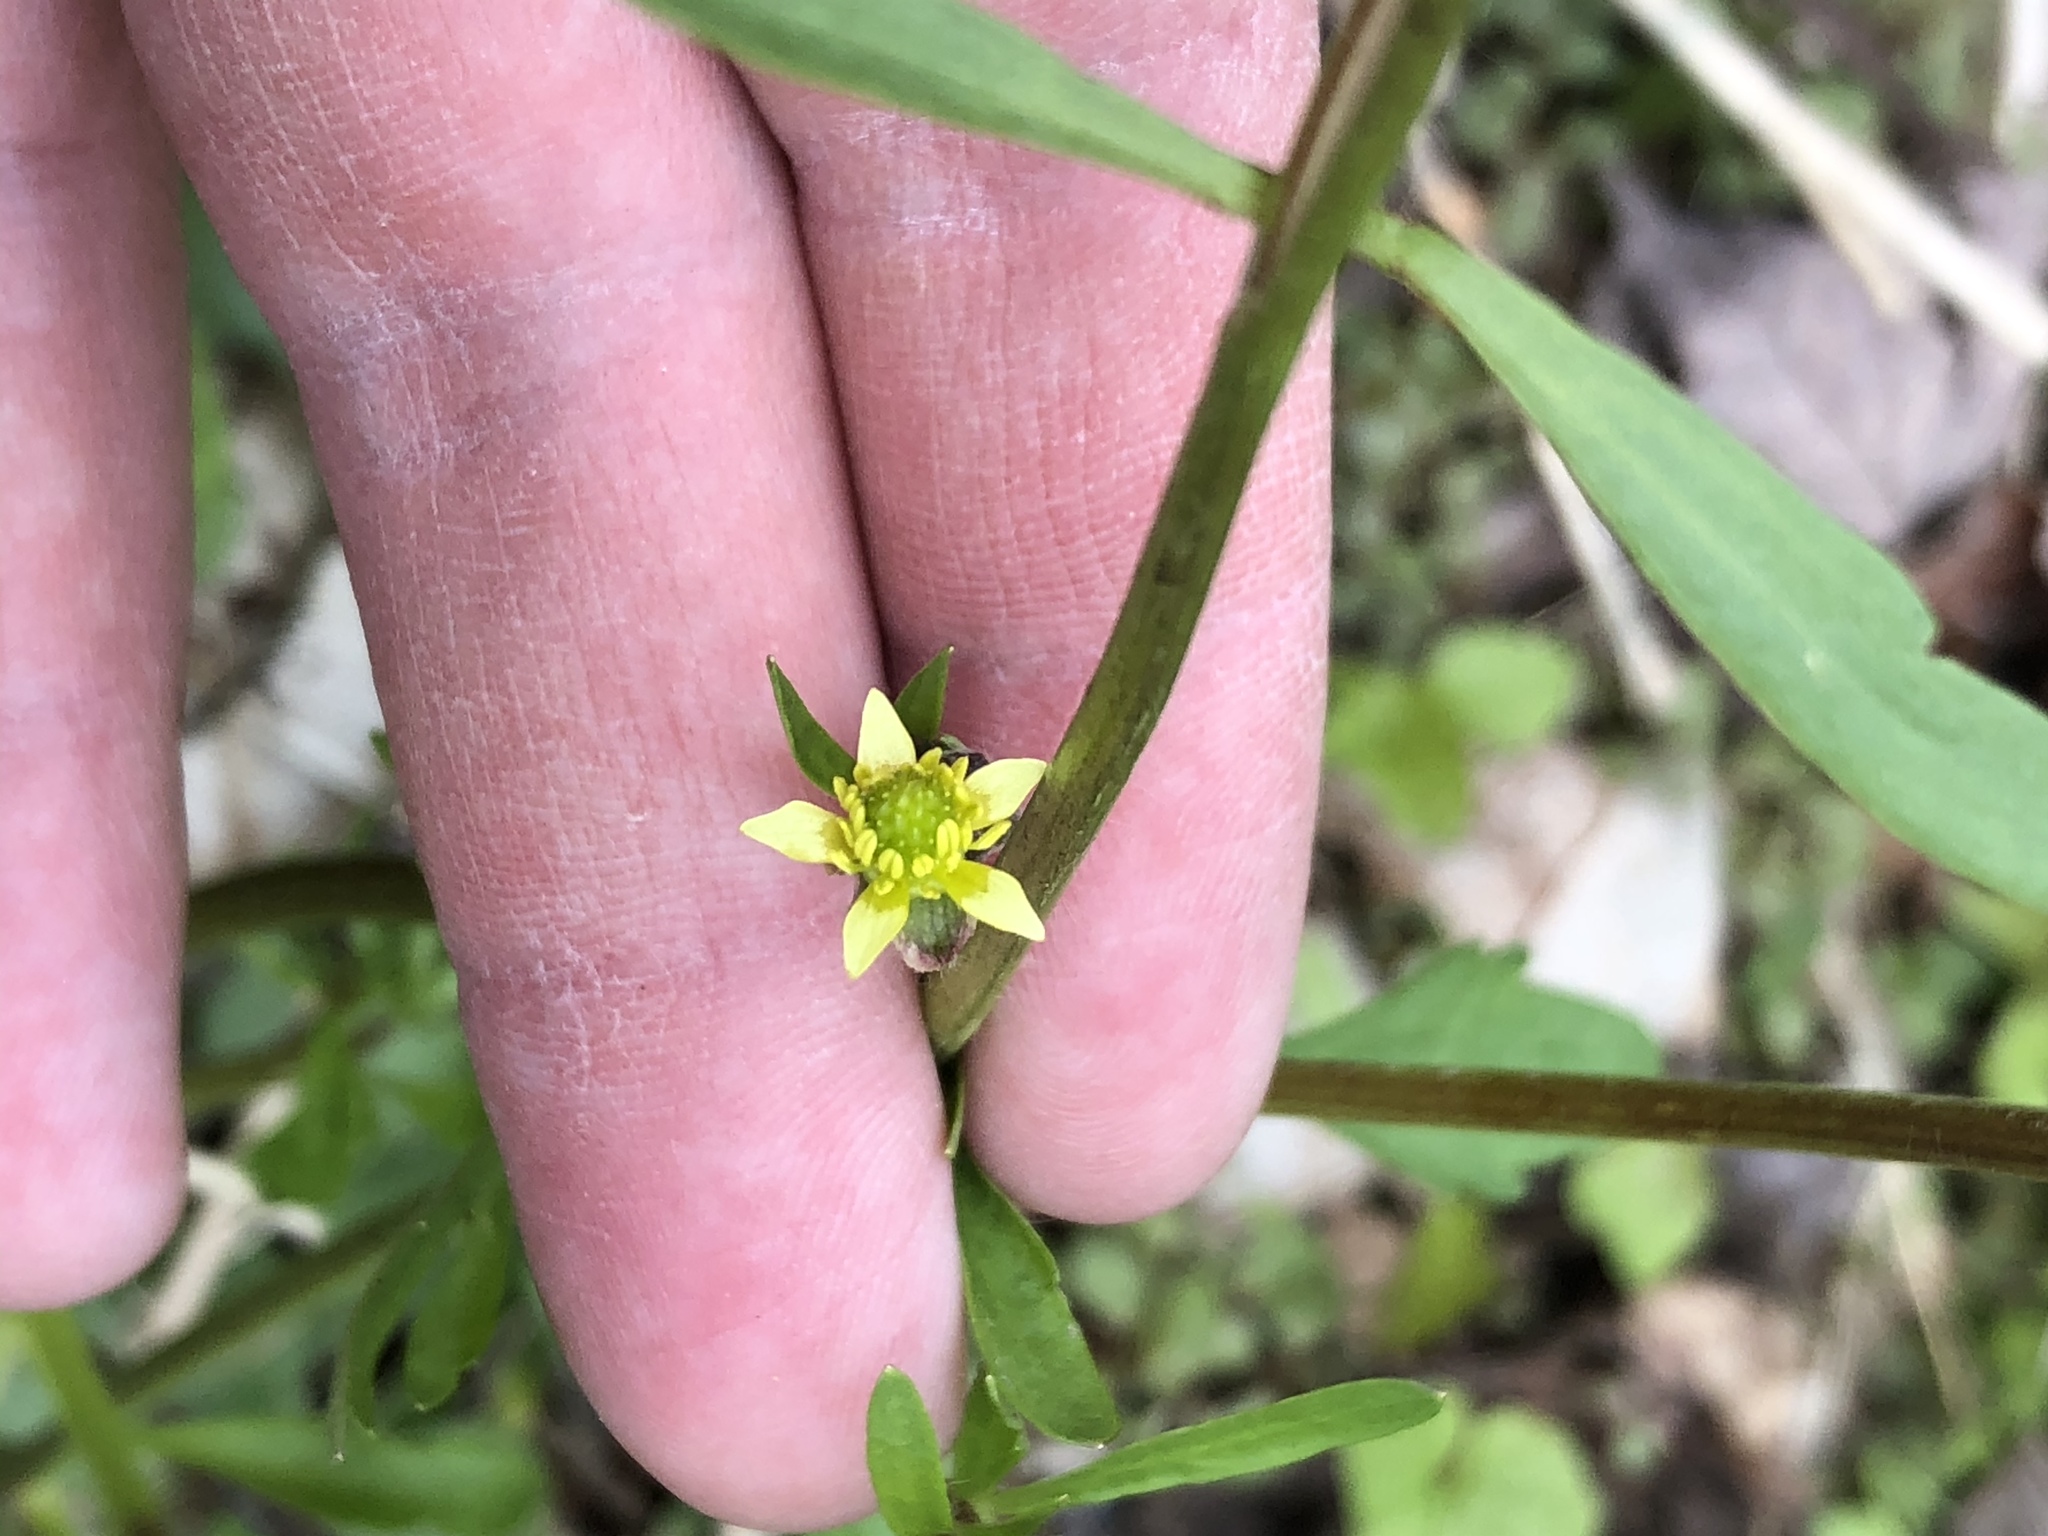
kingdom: Plantae
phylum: Tracheophyta
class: Magnoliopsida
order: Ranunculales
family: Ranunculaceae
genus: Ranunculus
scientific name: Ranunculus abortivus
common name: Early wood buttercup
